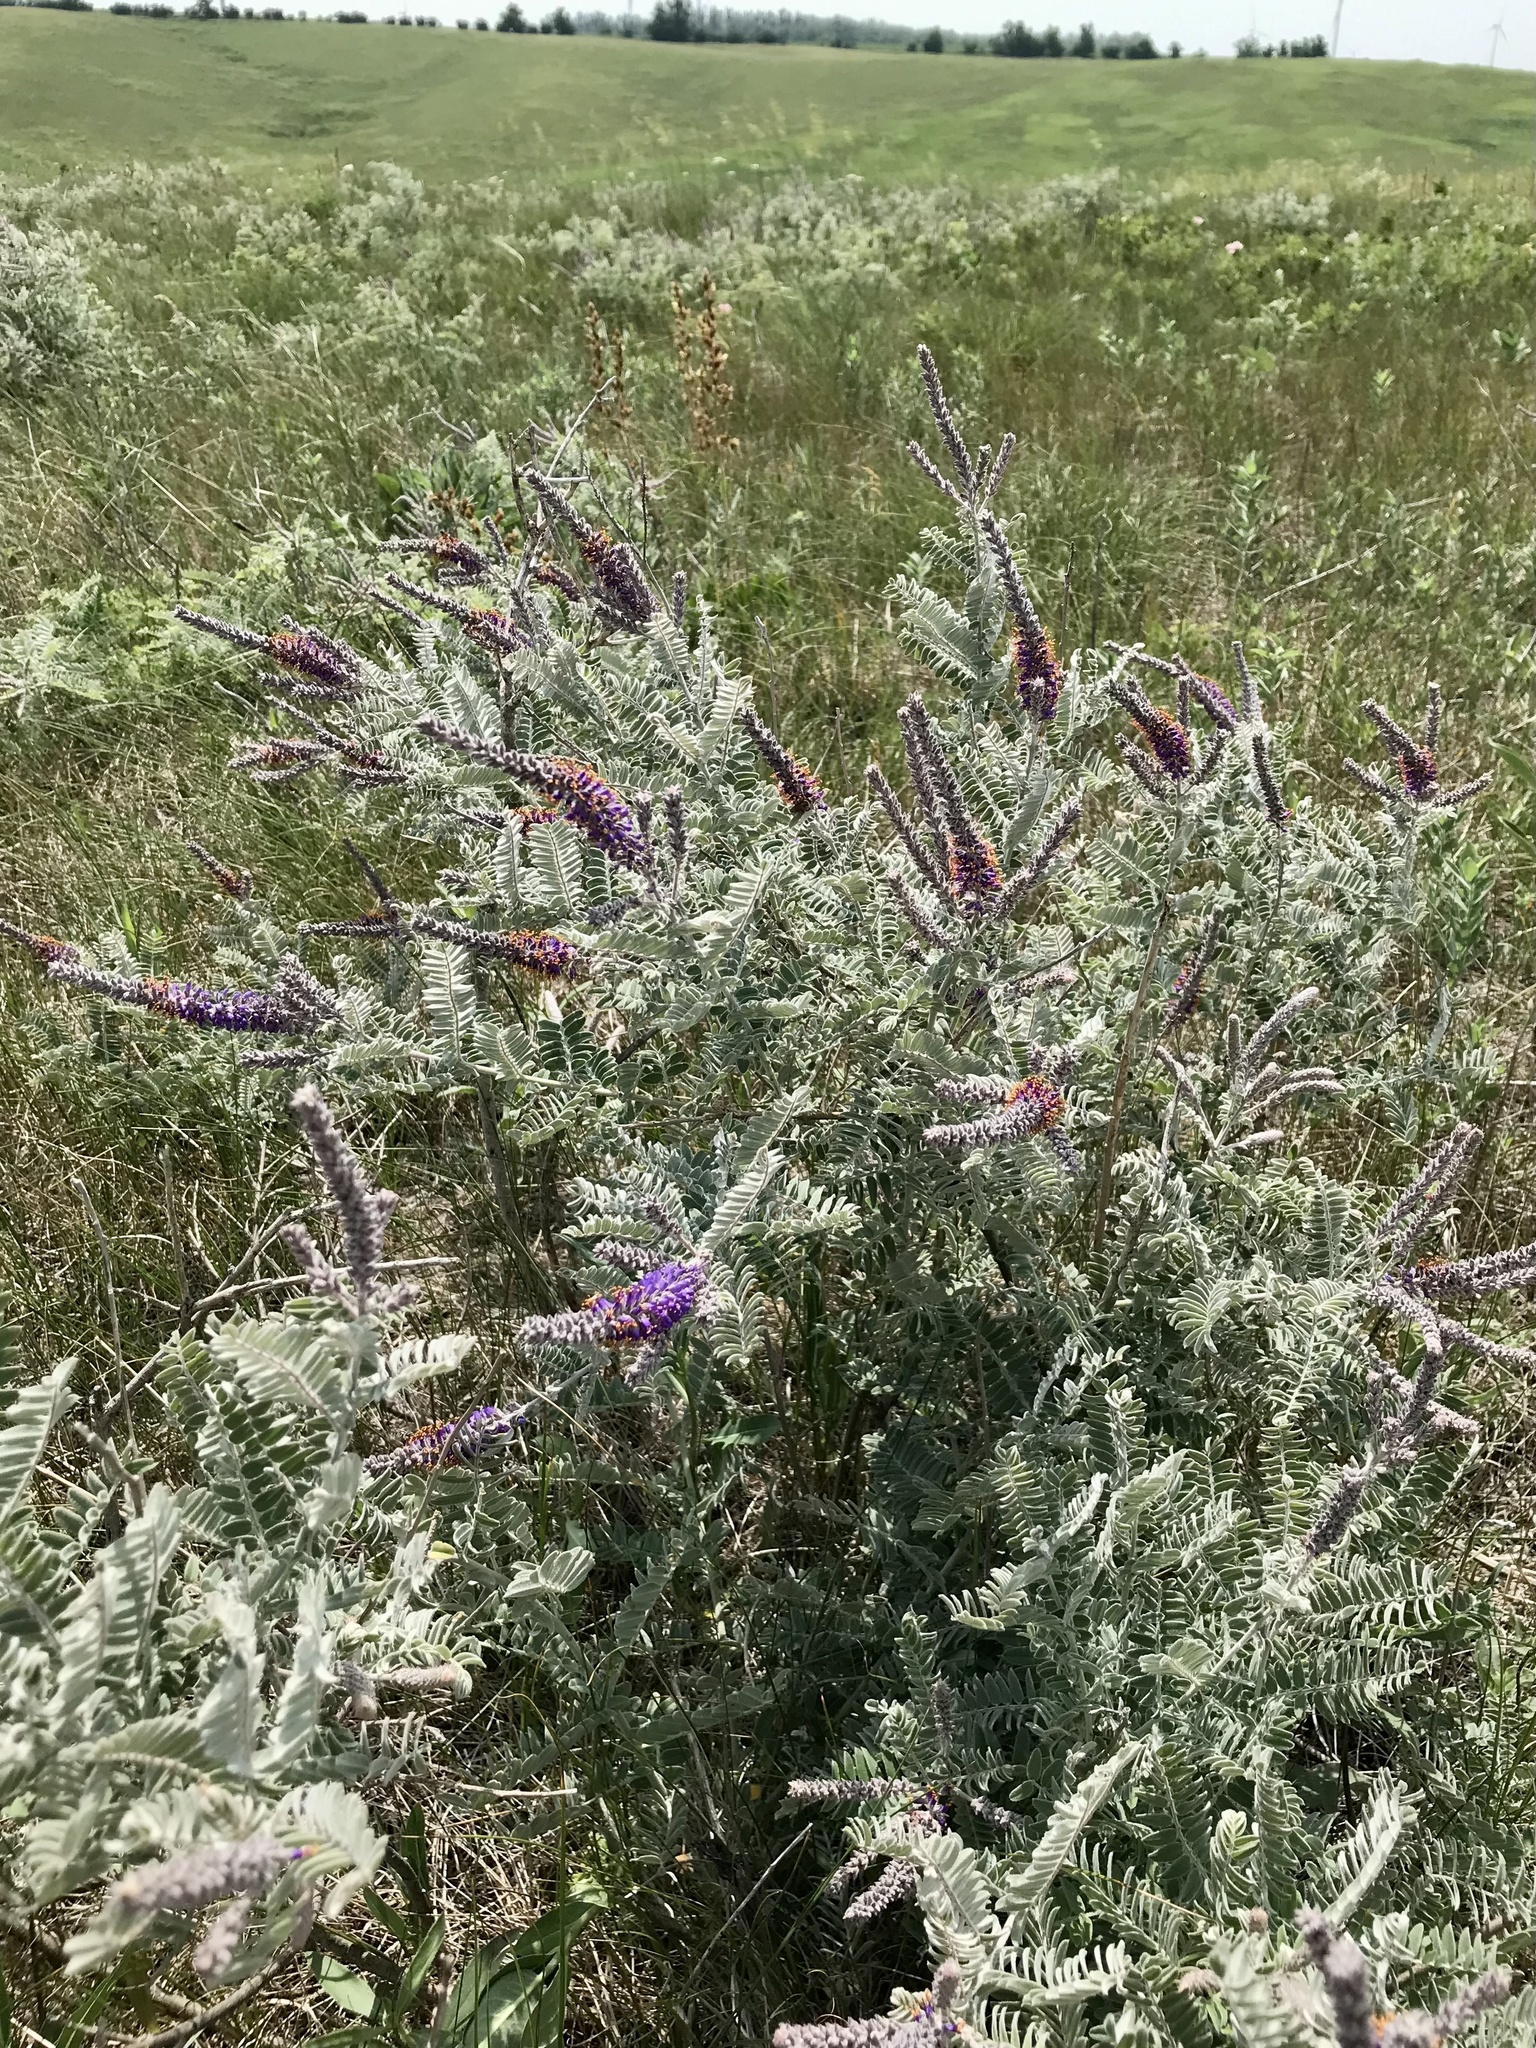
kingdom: Plantae
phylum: Tracheophyta
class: Magnoliopsida
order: Fabales
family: Fabaceae
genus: Amorpha
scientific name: Amorpha canescens
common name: Leadplant
